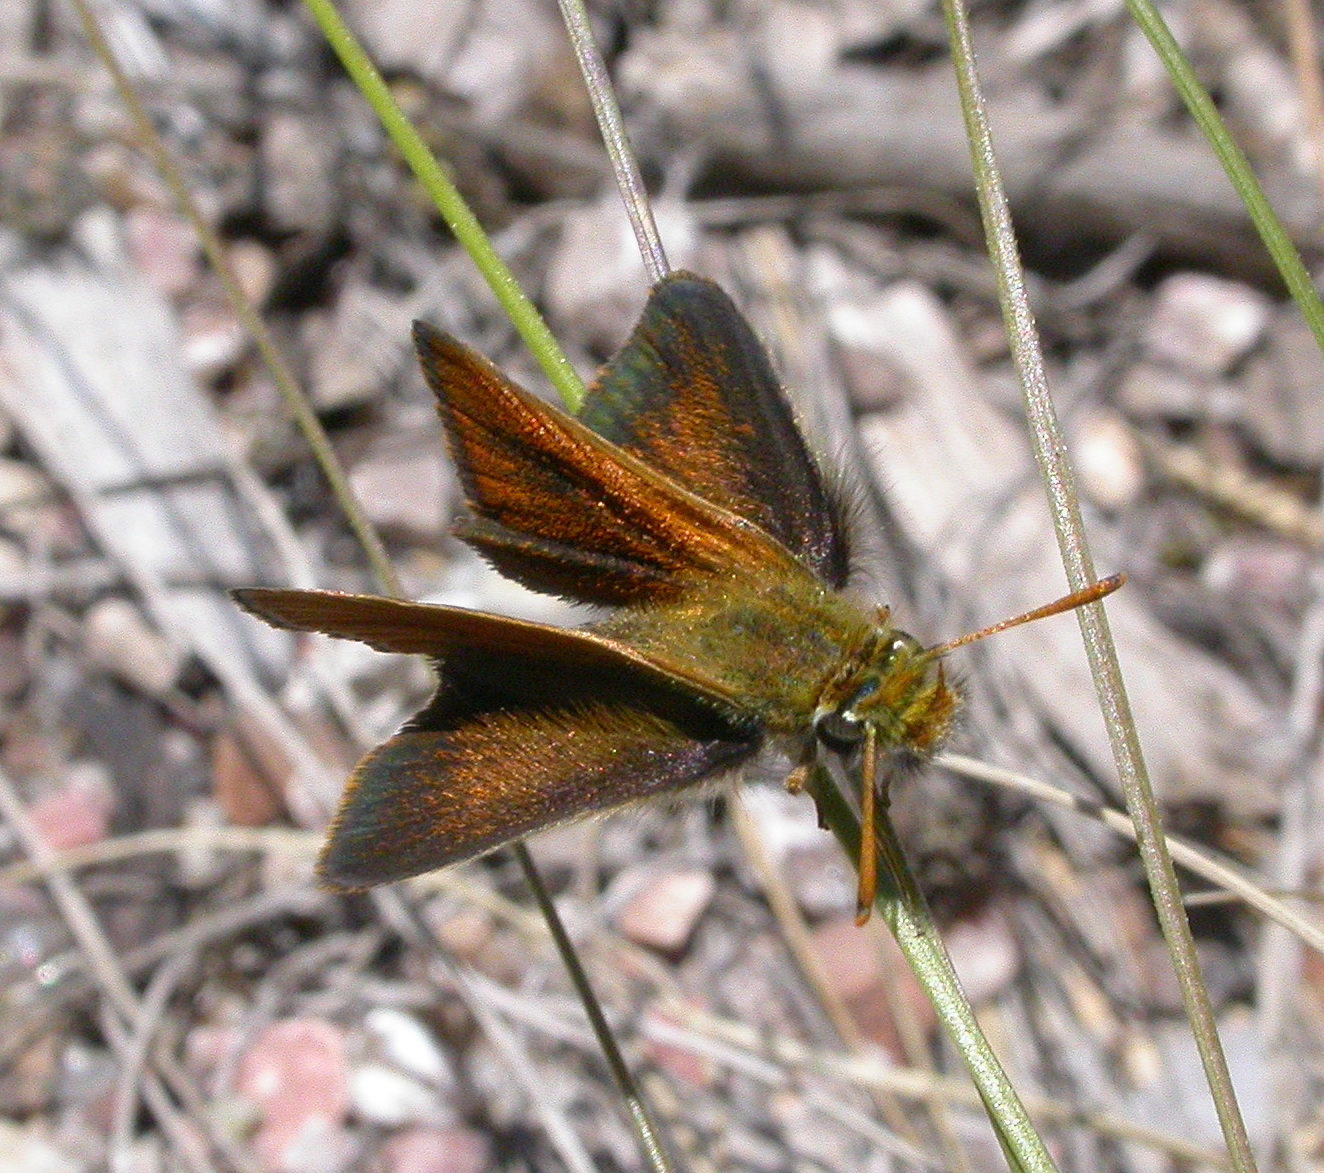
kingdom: Animalia
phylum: Arthropoda
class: Insecta
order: Lepidoptera
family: Hesperiidae
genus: Oarisma
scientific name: Oarisma garita
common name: Garita skipperling
